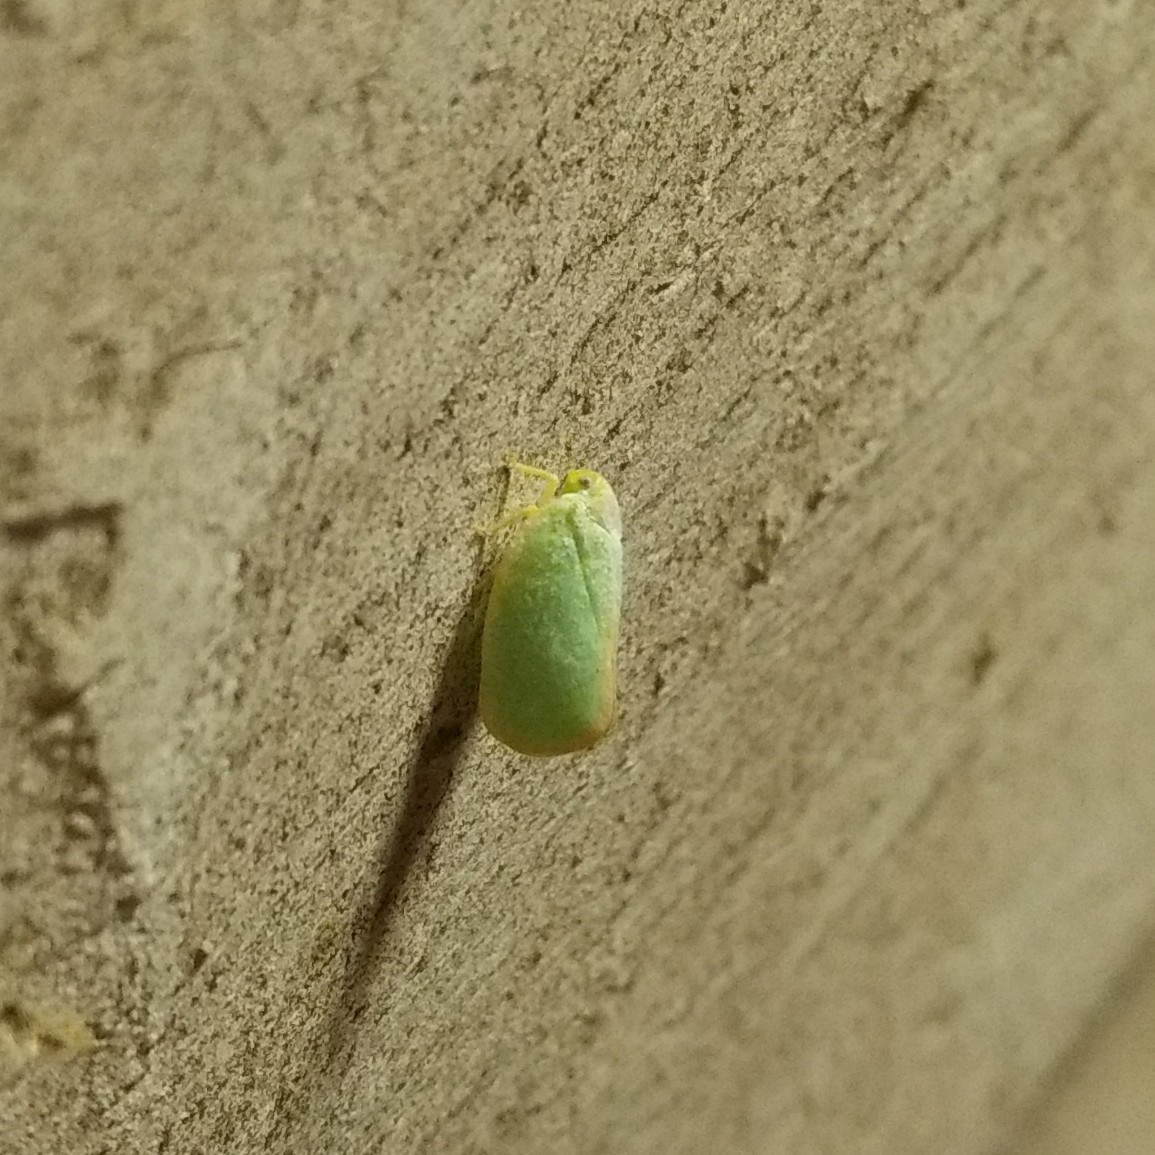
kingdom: Animalia
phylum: Arthropoda
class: Insecta
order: Hemiptera
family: Flatidae
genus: Ormenoides
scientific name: Ormenoides venusta
